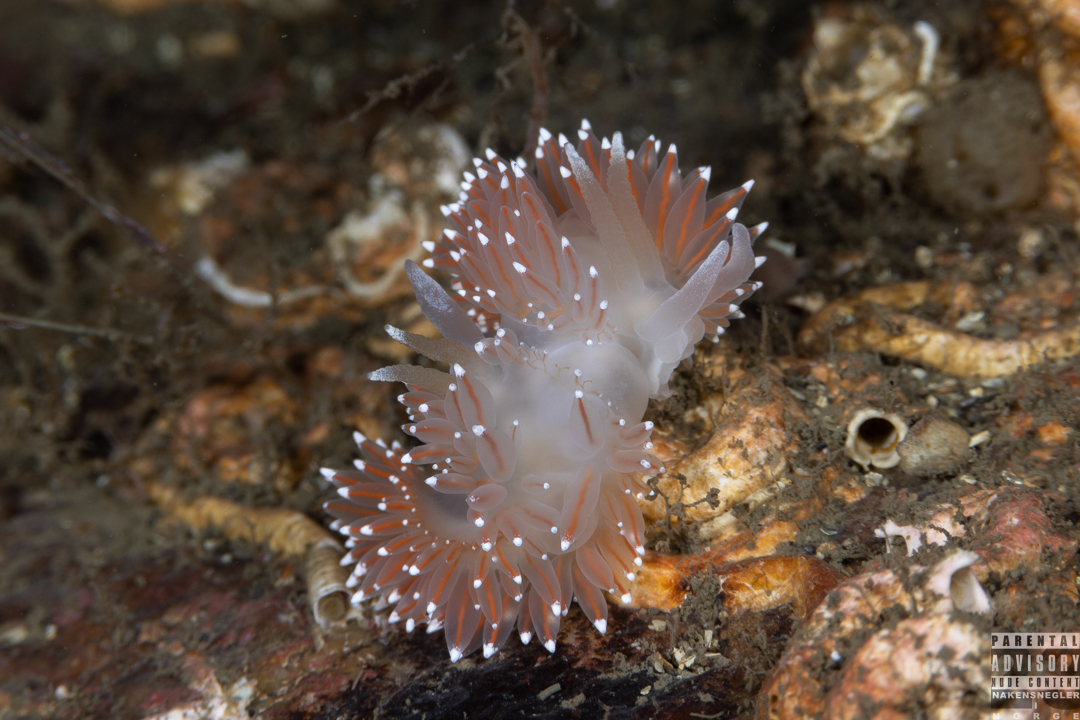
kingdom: Animalia
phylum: Mollusca
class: Gastropoda
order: Nudibranchia
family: Coryphellidae
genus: Coryphella
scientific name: Coryphella nobilis
